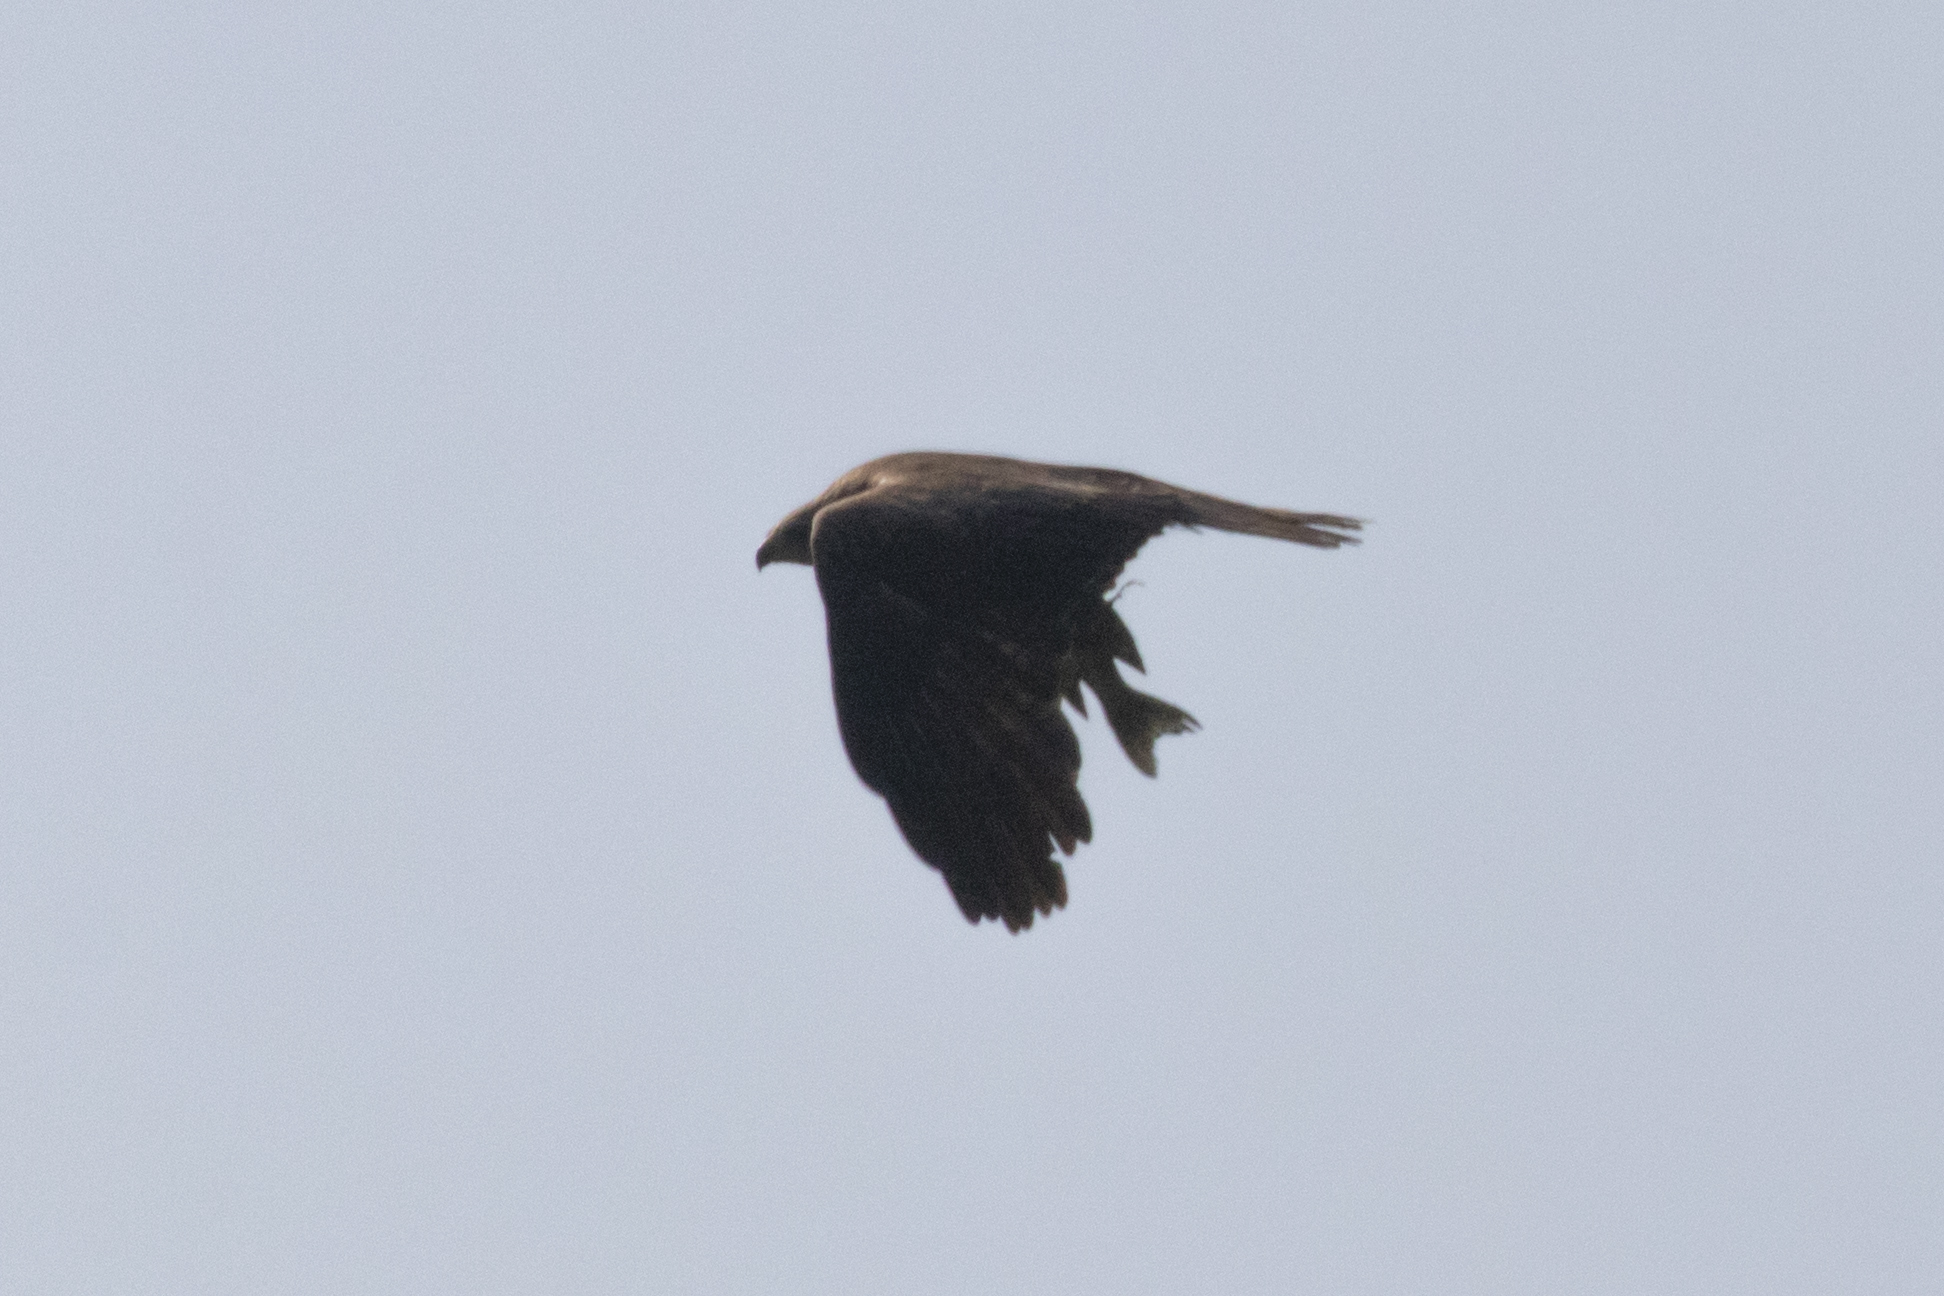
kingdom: Animalia
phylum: Chordata
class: Aves
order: Accipitriformes
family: Accipitridae
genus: Milvus
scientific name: Milvus migrans
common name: Black kite
